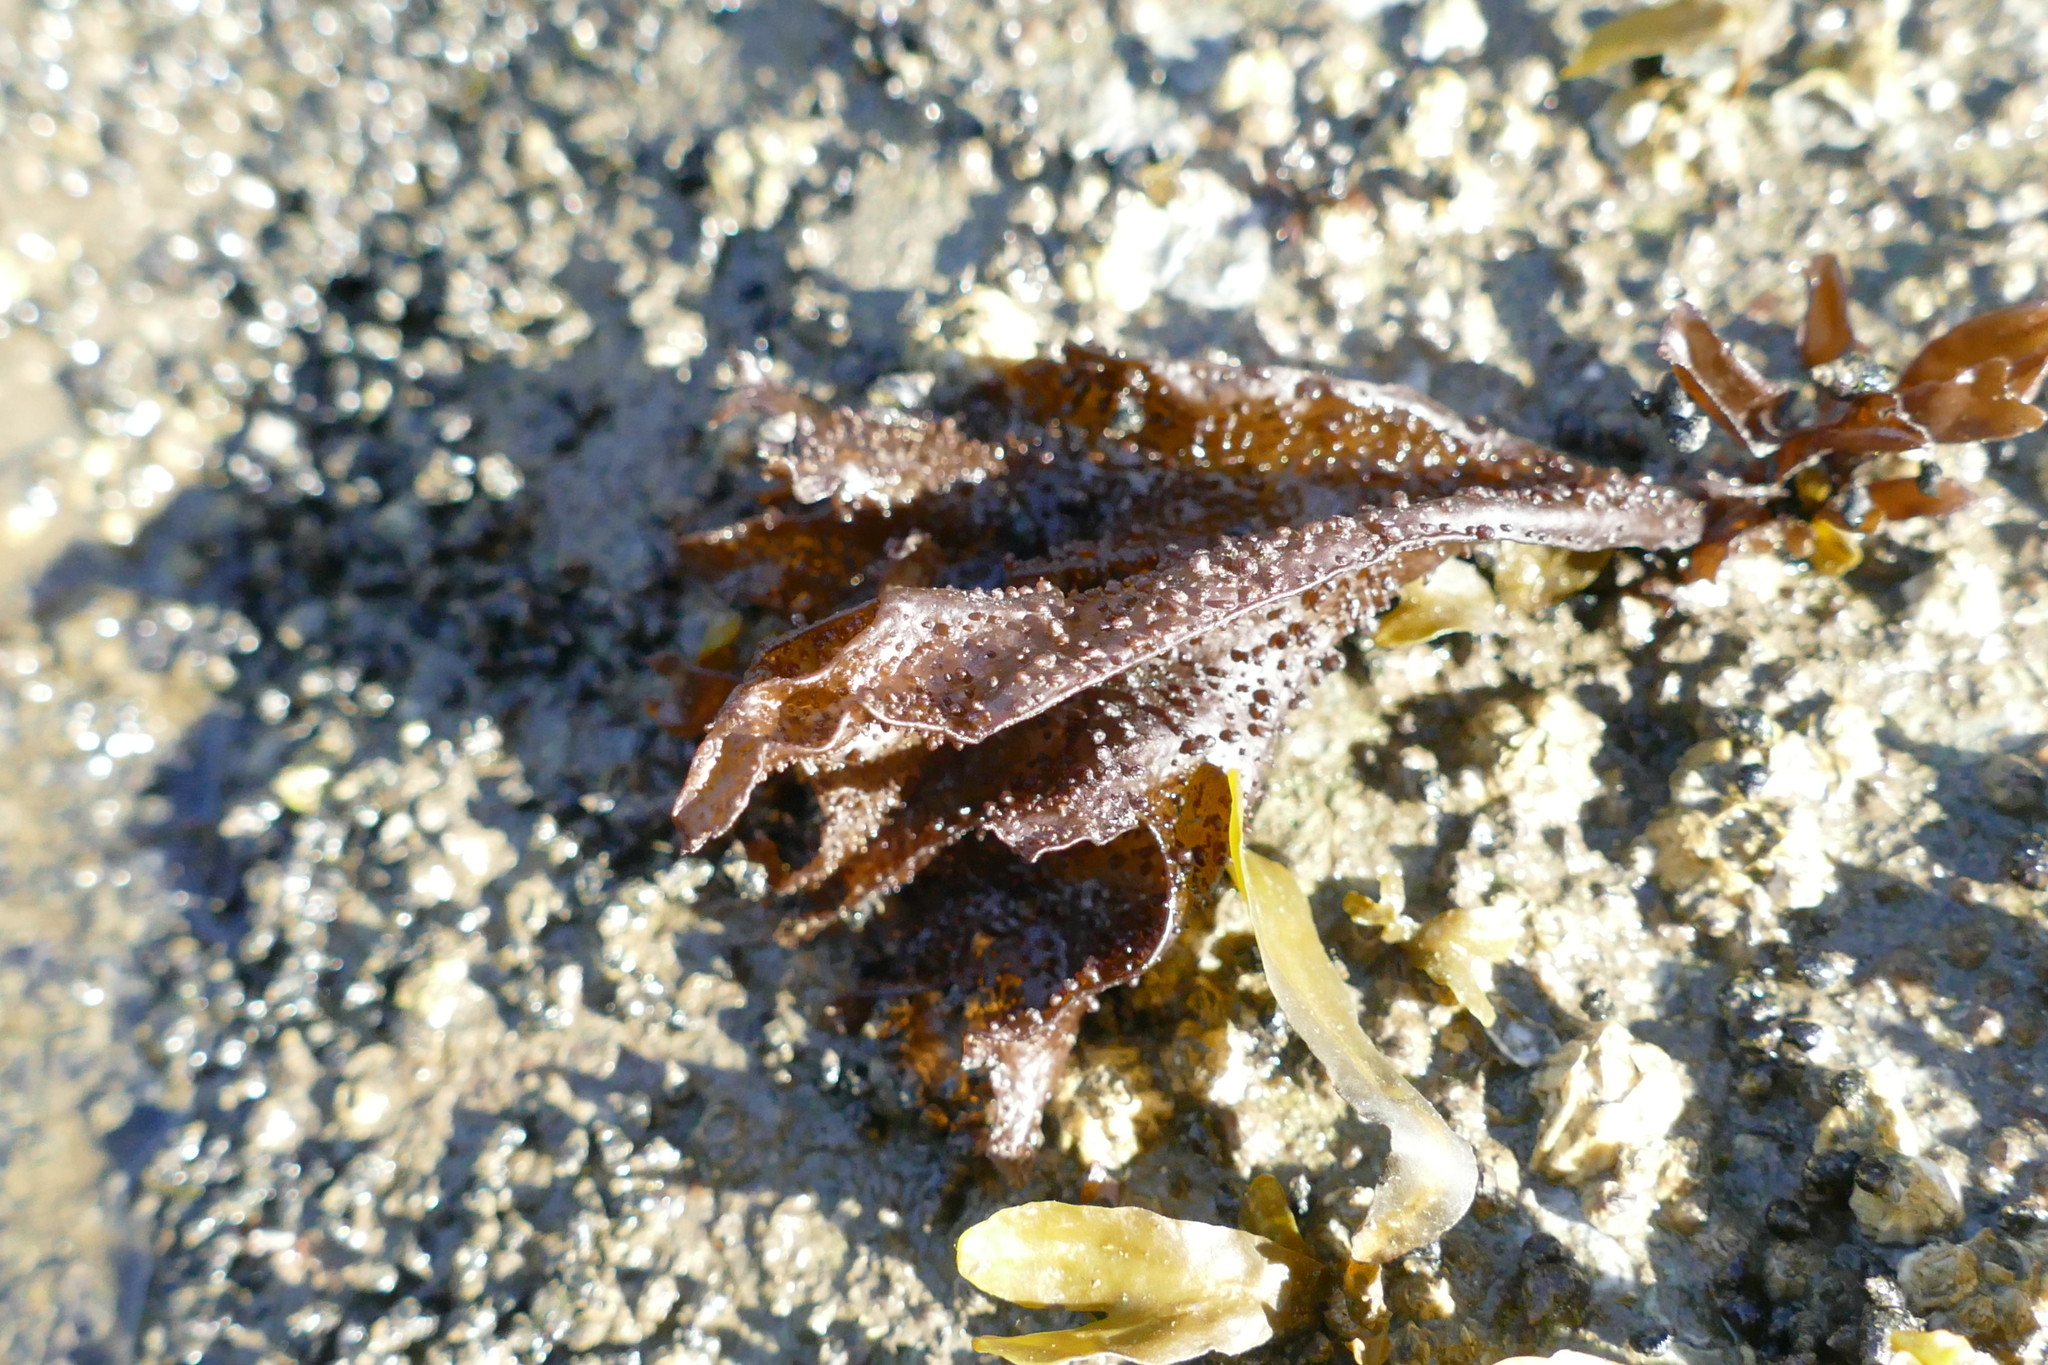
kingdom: Plantae
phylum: Rhodophyta
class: Florideophyceae
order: Gigartinales
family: Phyllophoraceae
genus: Mastocarpus
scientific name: Mastocarpus papillatus
